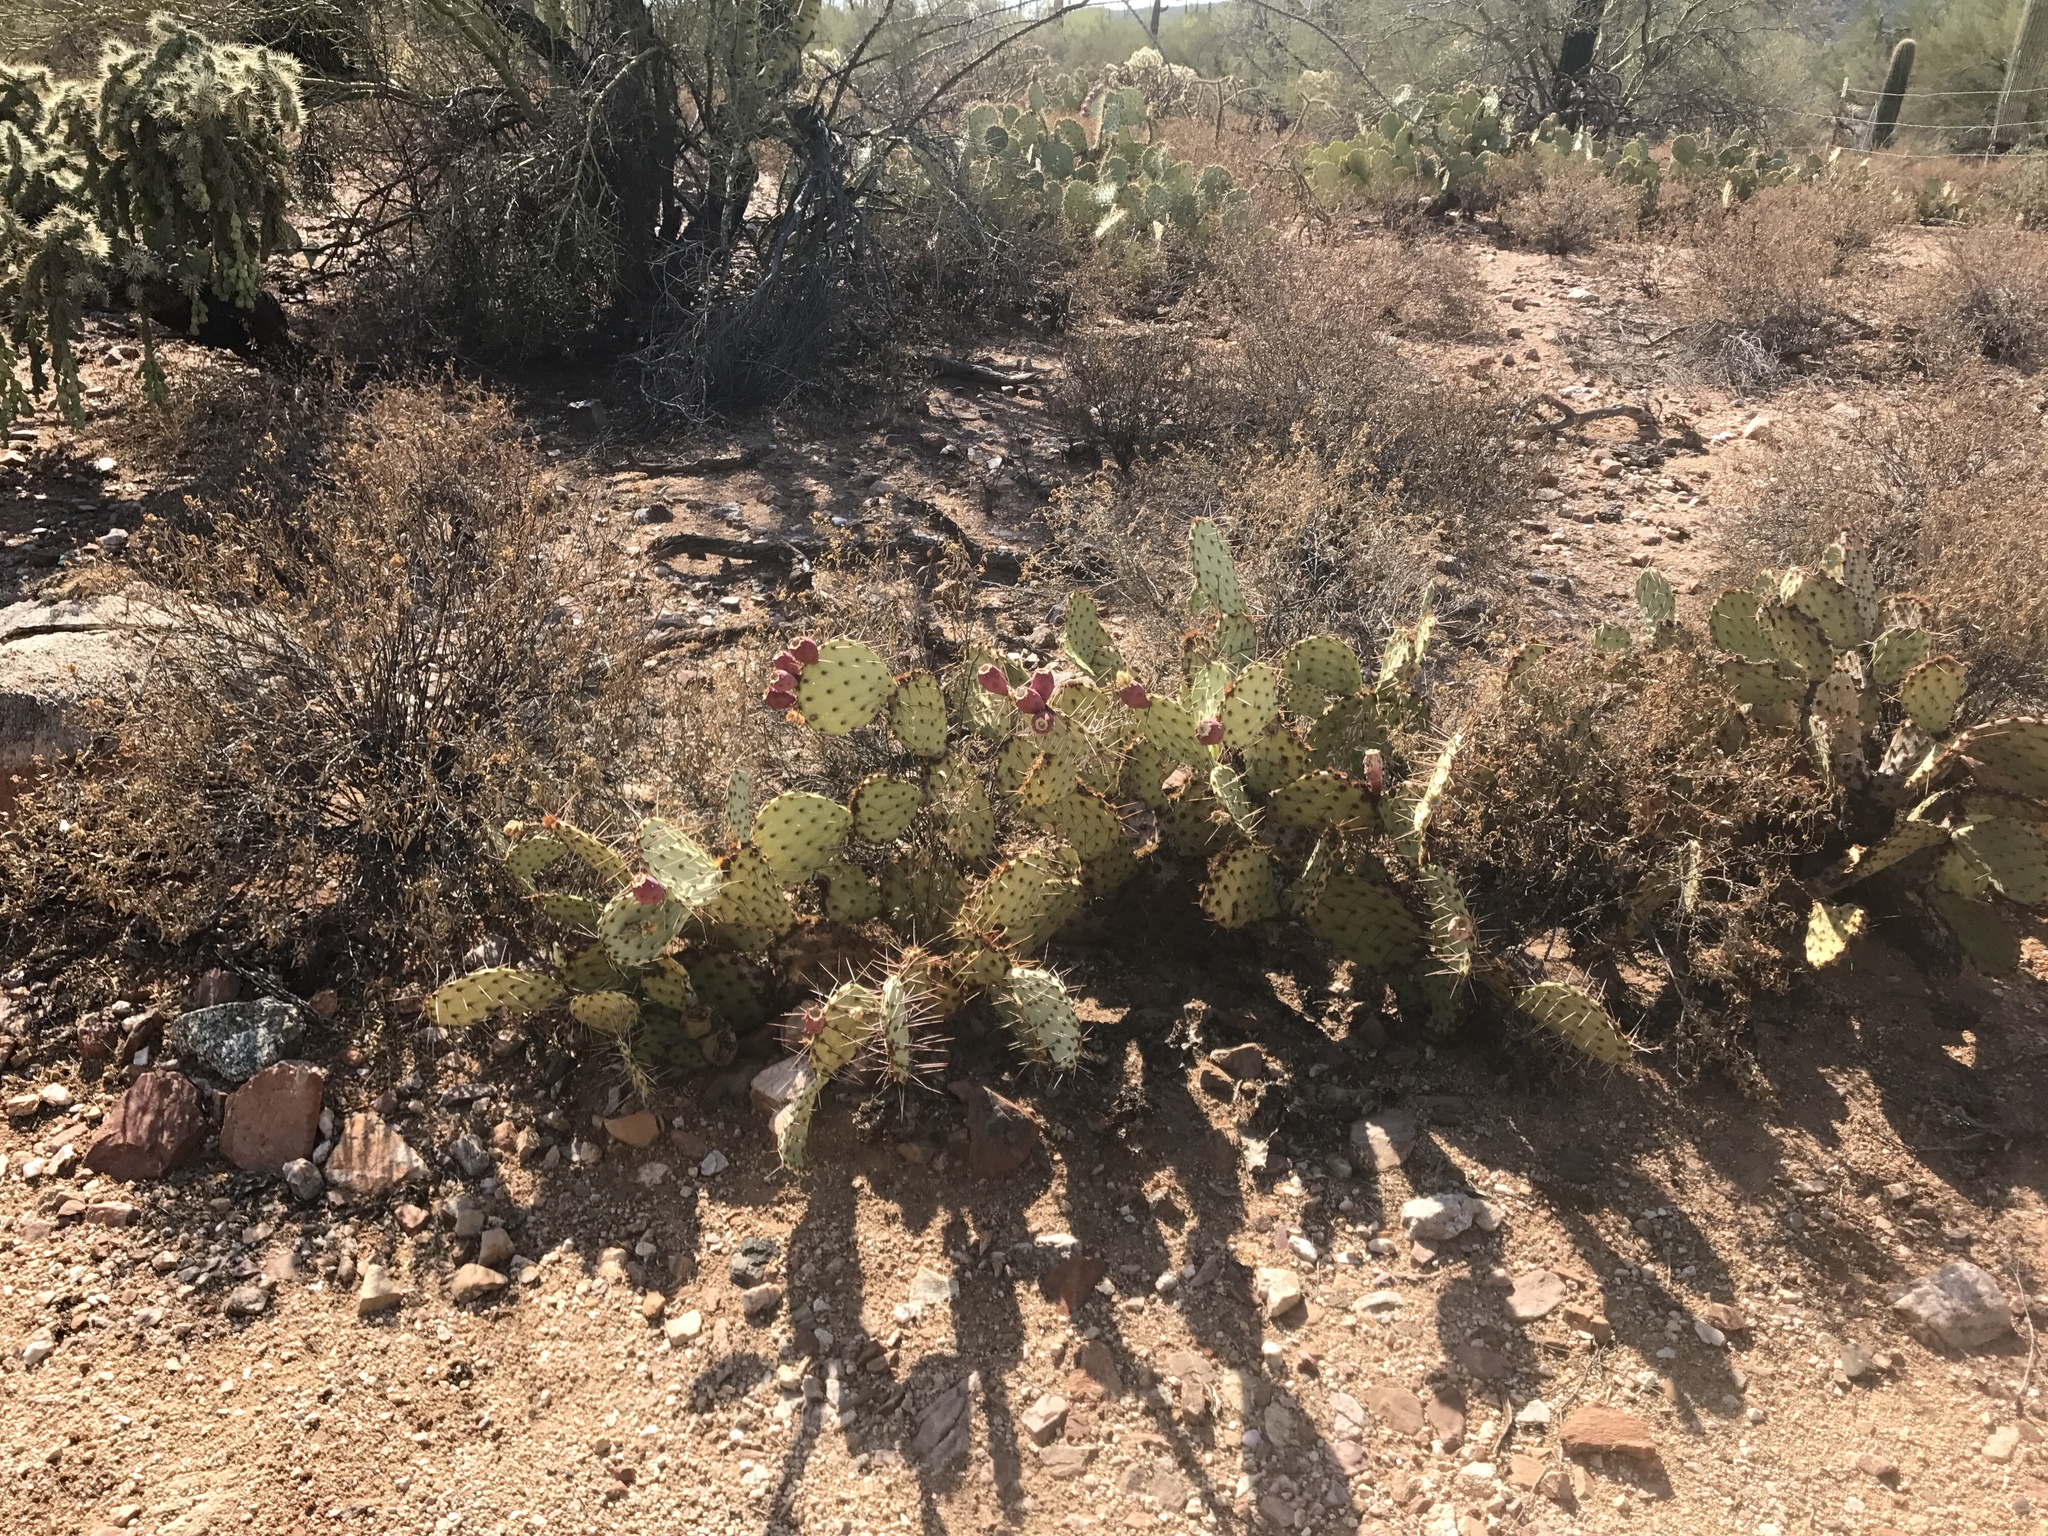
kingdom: Plantae
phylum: Tracheophyta
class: Magnoliopsida
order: Caryophyllales
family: Cactaceae
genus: Opuntia
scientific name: Opuntia phaeacantha
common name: New mexico prickly-pear
